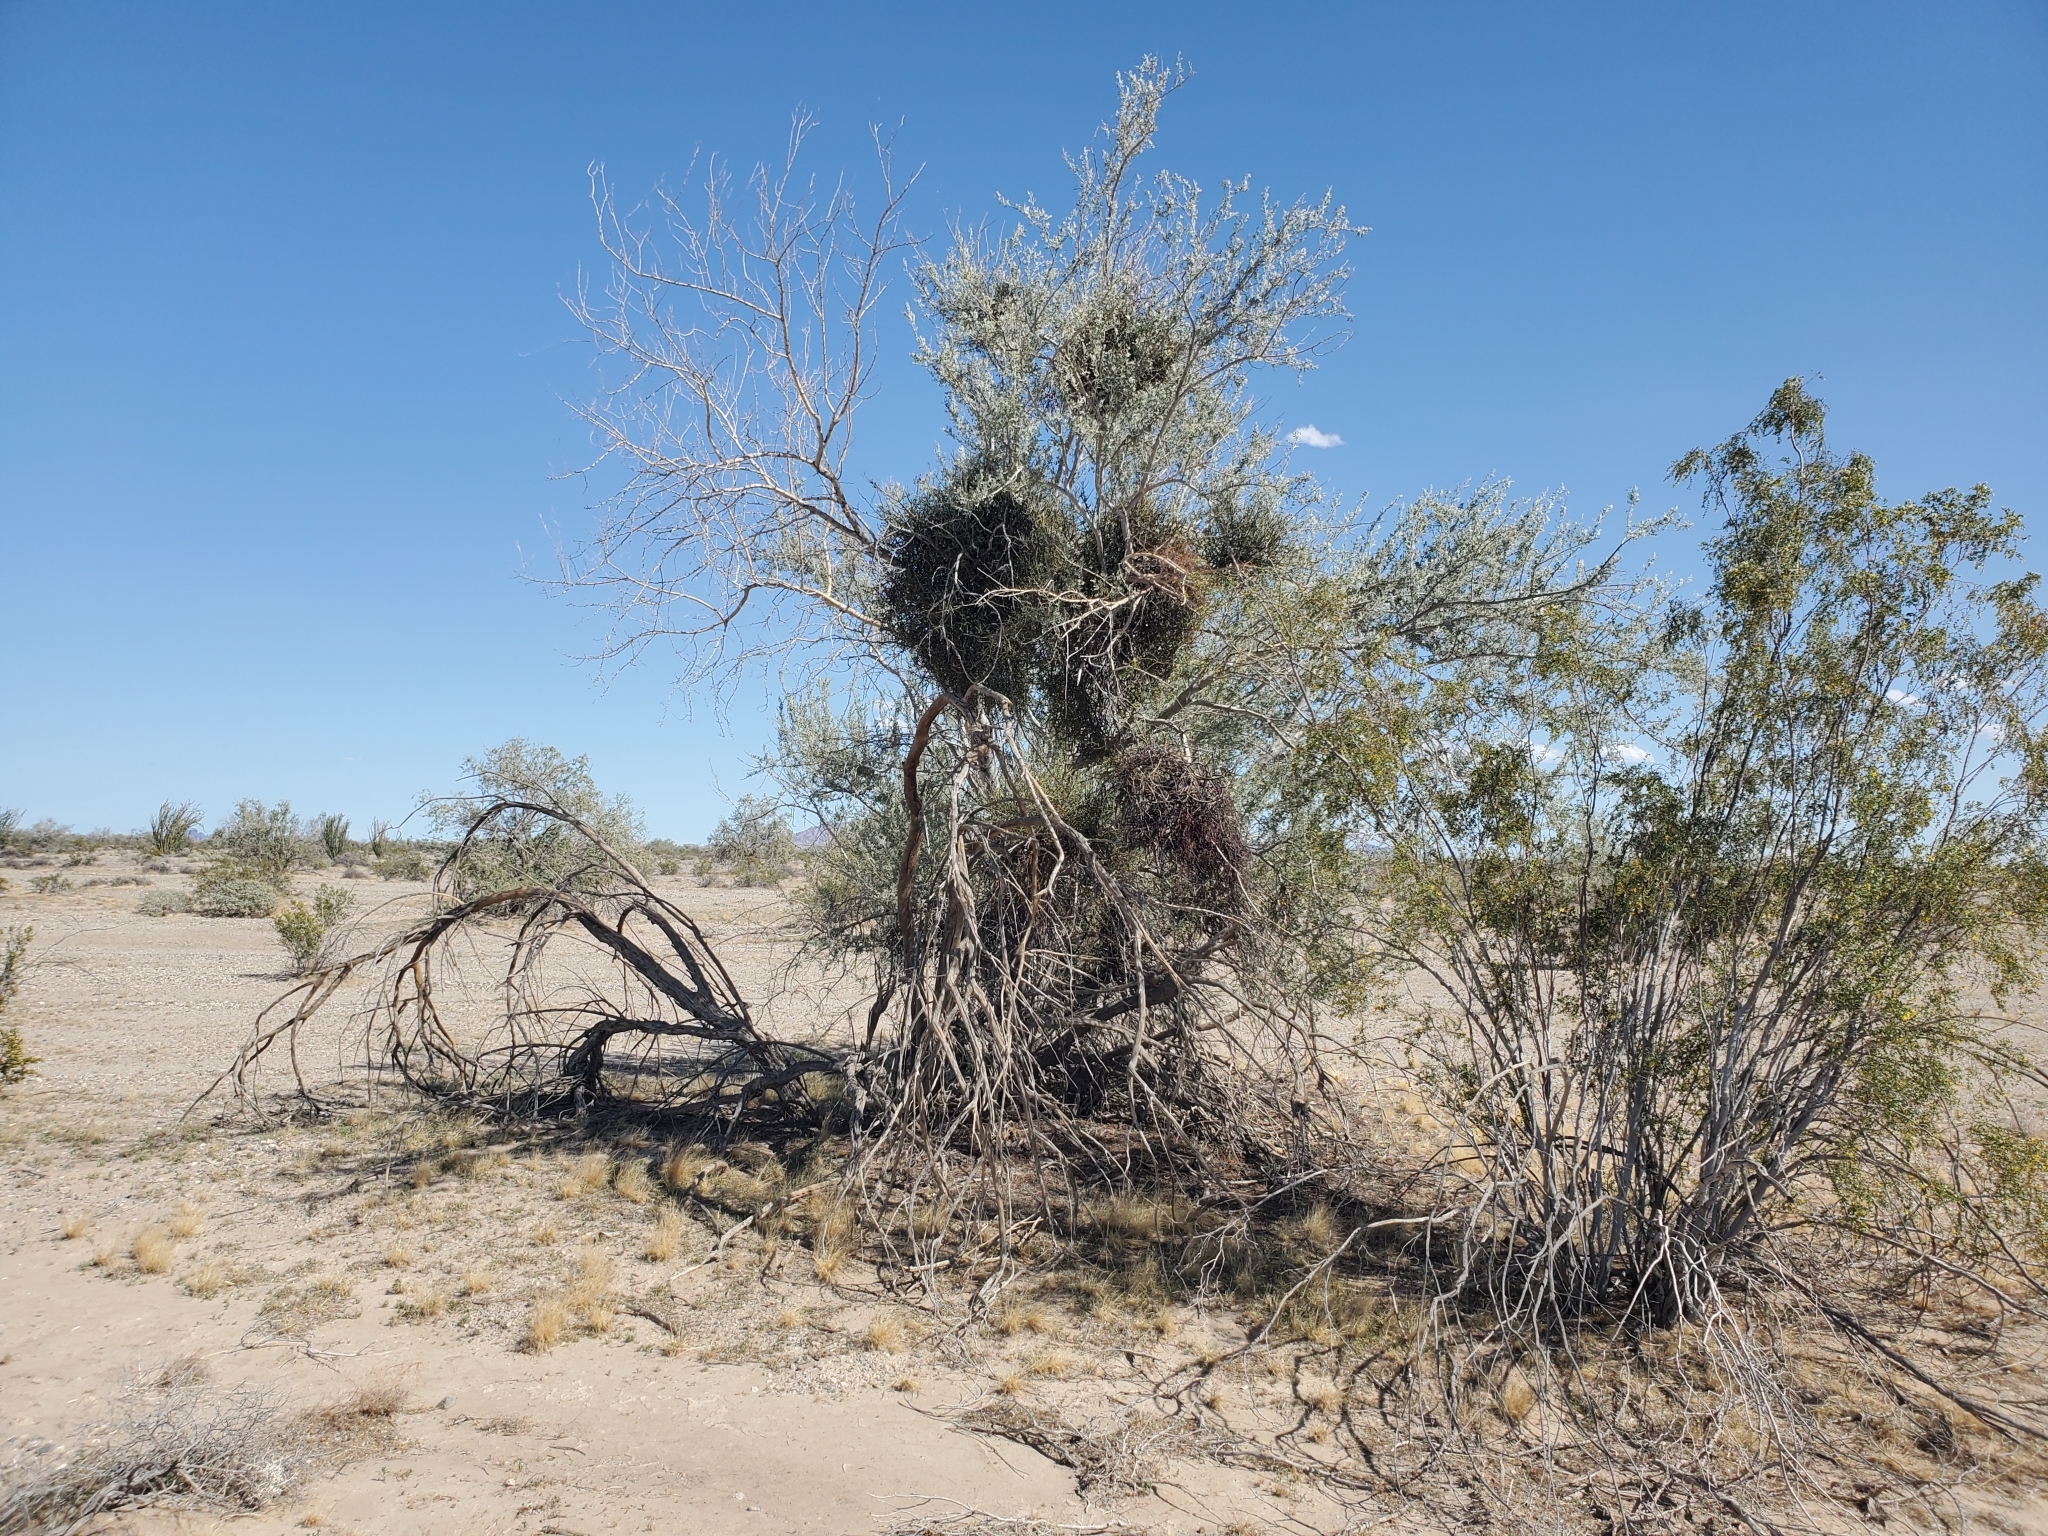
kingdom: Plantae
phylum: Tracheophyta
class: Magnoliopsida
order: Santalales
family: Viscaceae
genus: Phoradendron
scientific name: Phoradendron californicum
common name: Acacia mistletoe
